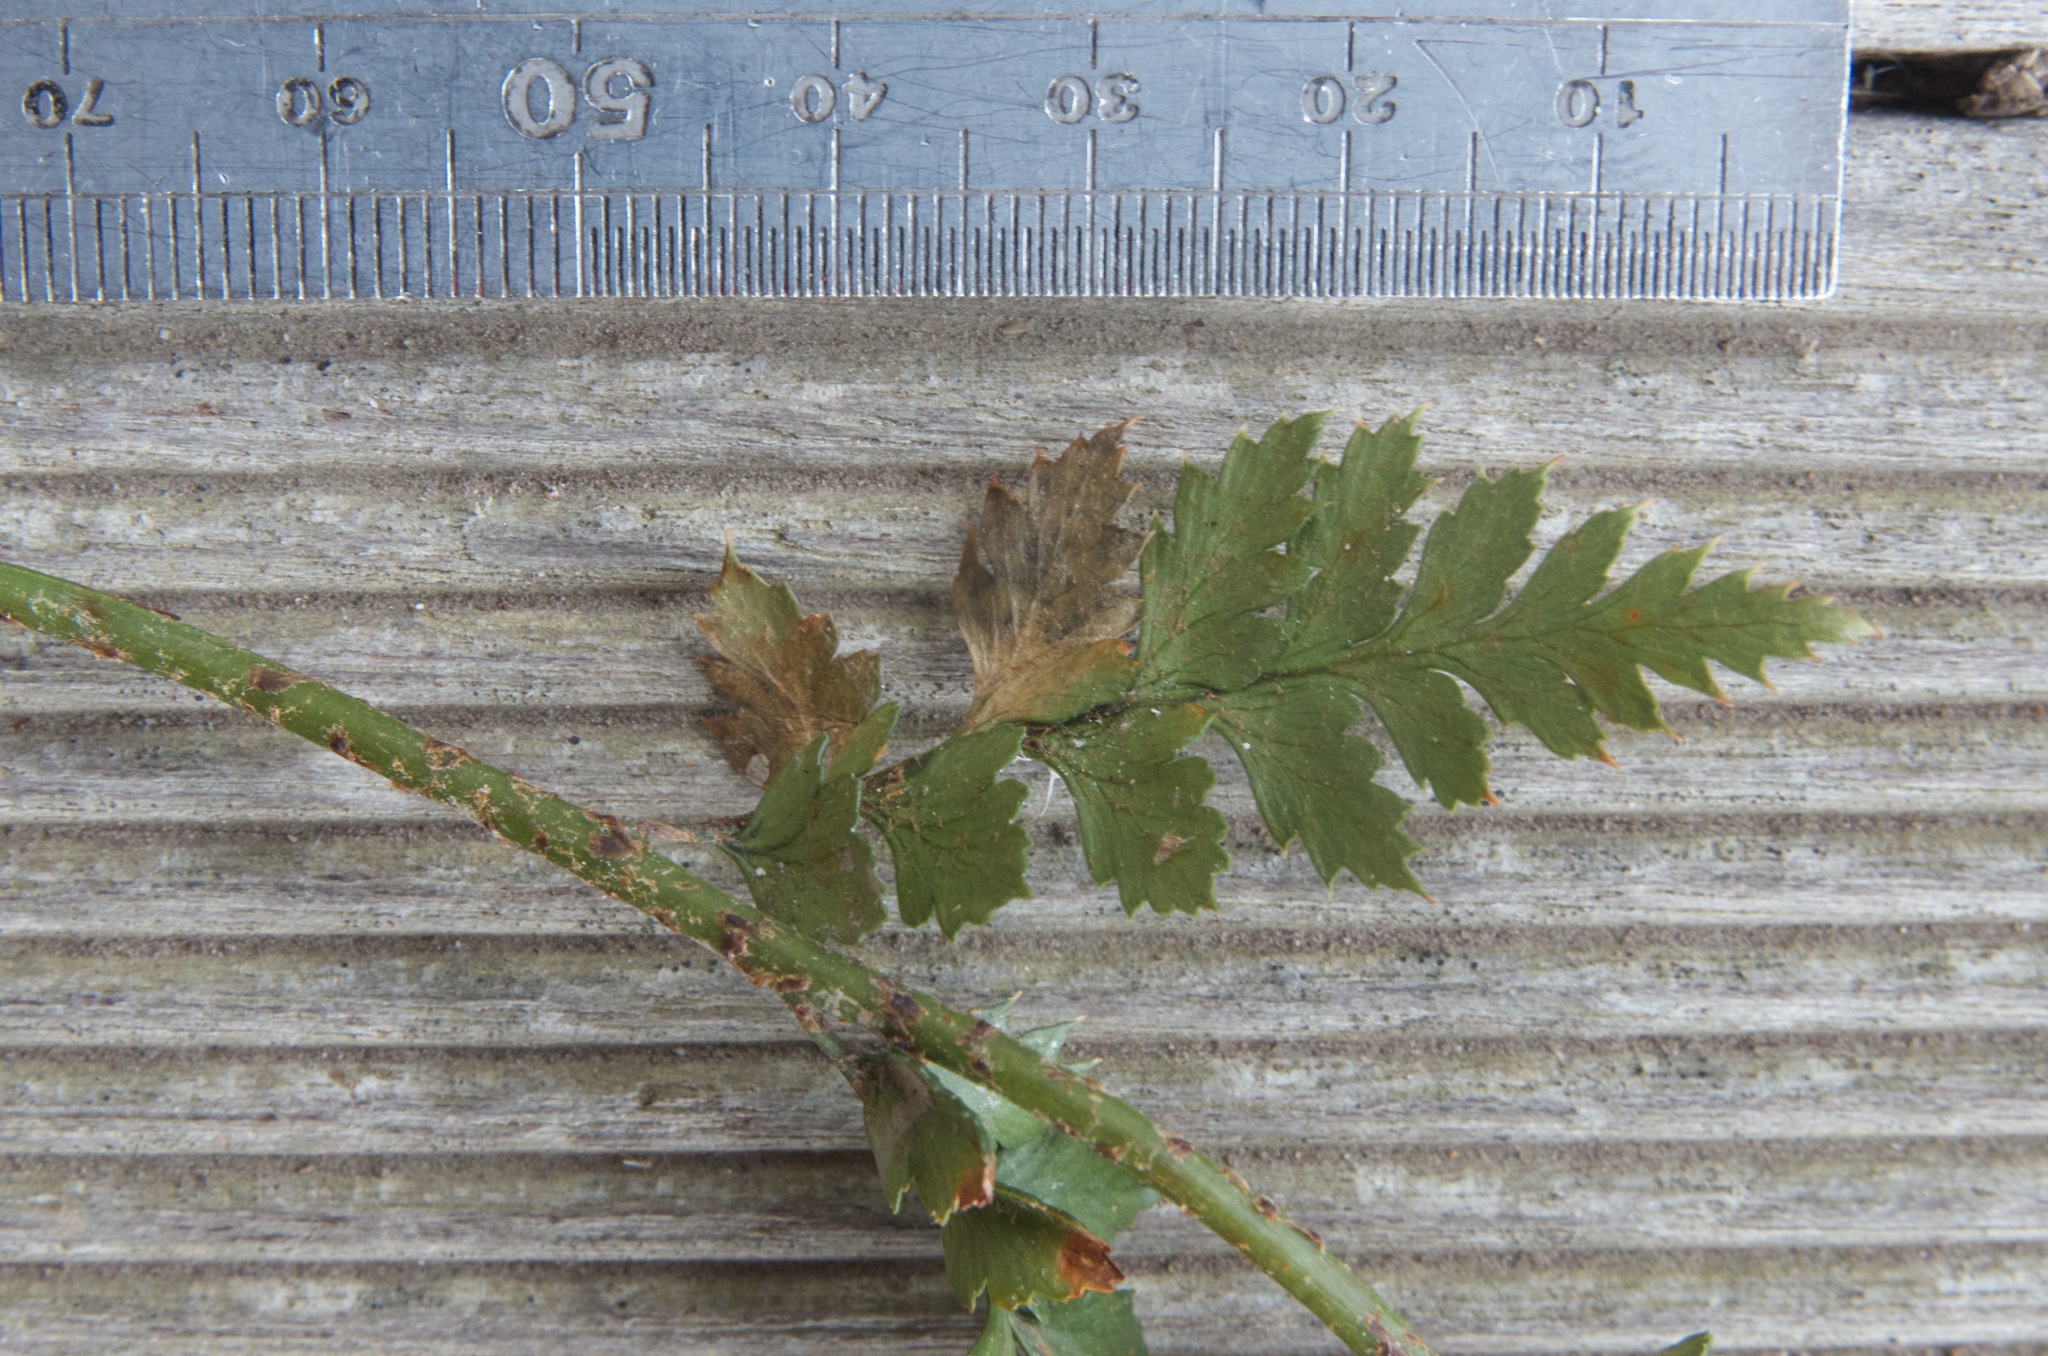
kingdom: Plantae
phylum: Tracheophyta
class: Polypodiopsida
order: Polypodiales
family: Dryopteridaceae
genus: Polystichum
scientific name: Polystichum oculatum
